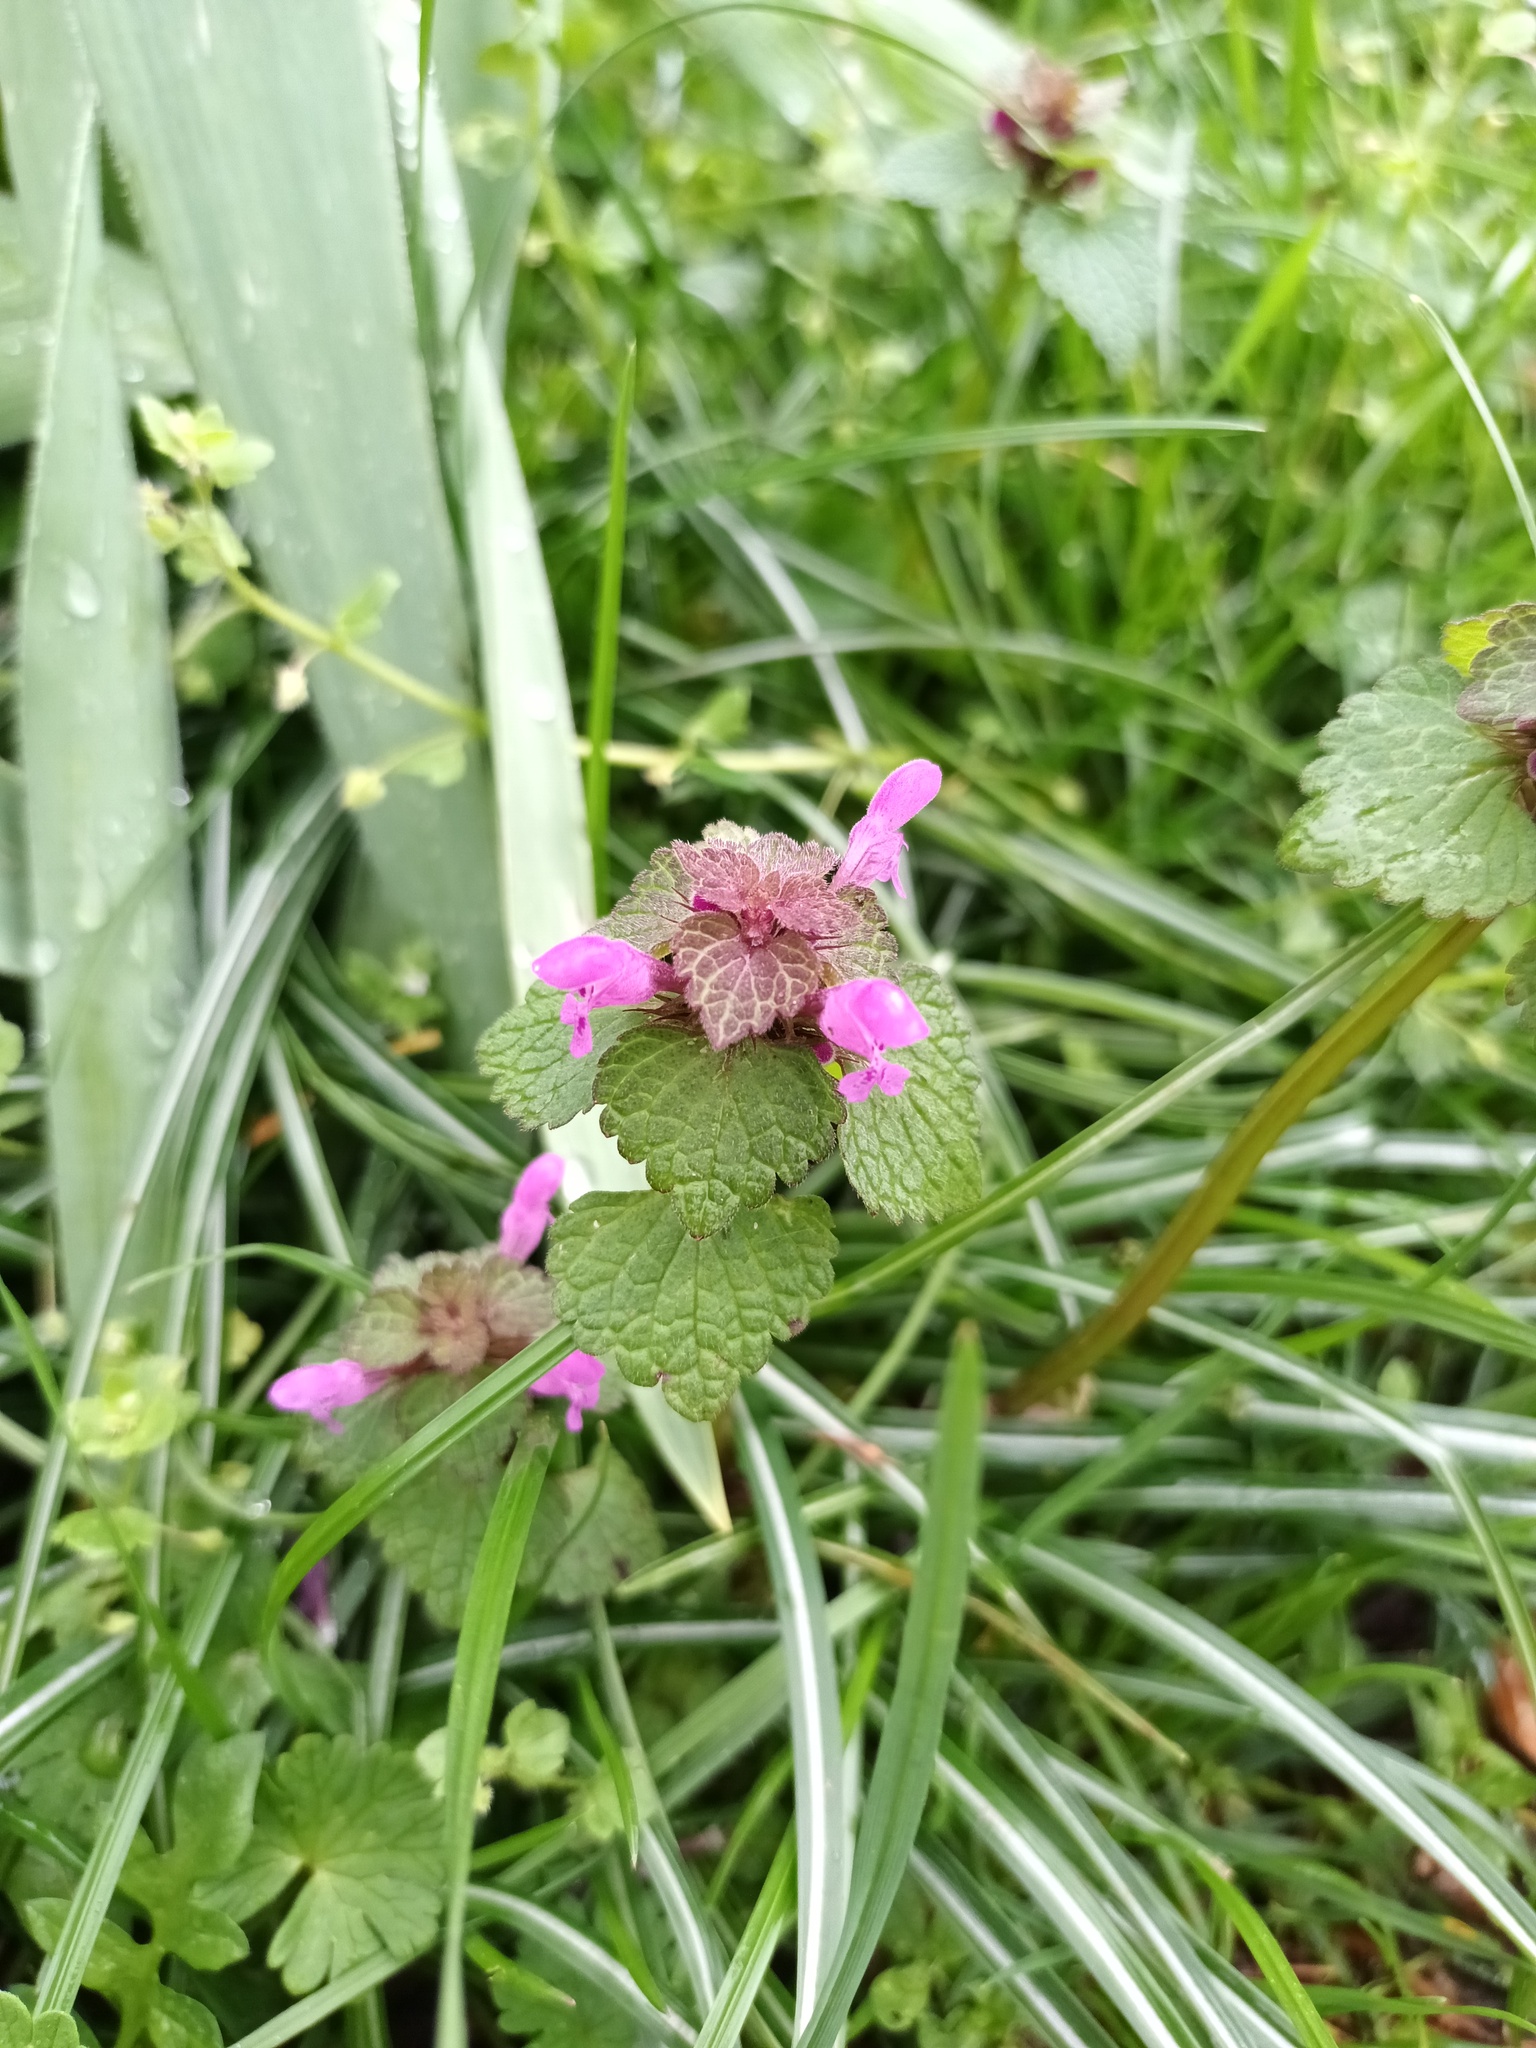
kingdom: Plantae
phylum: Tracheophyta
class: Magnoliopsida
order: Lamiales
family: Lamiaceae
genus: Lamium
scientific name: Lamium purpureum
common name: Red dead-nettle
